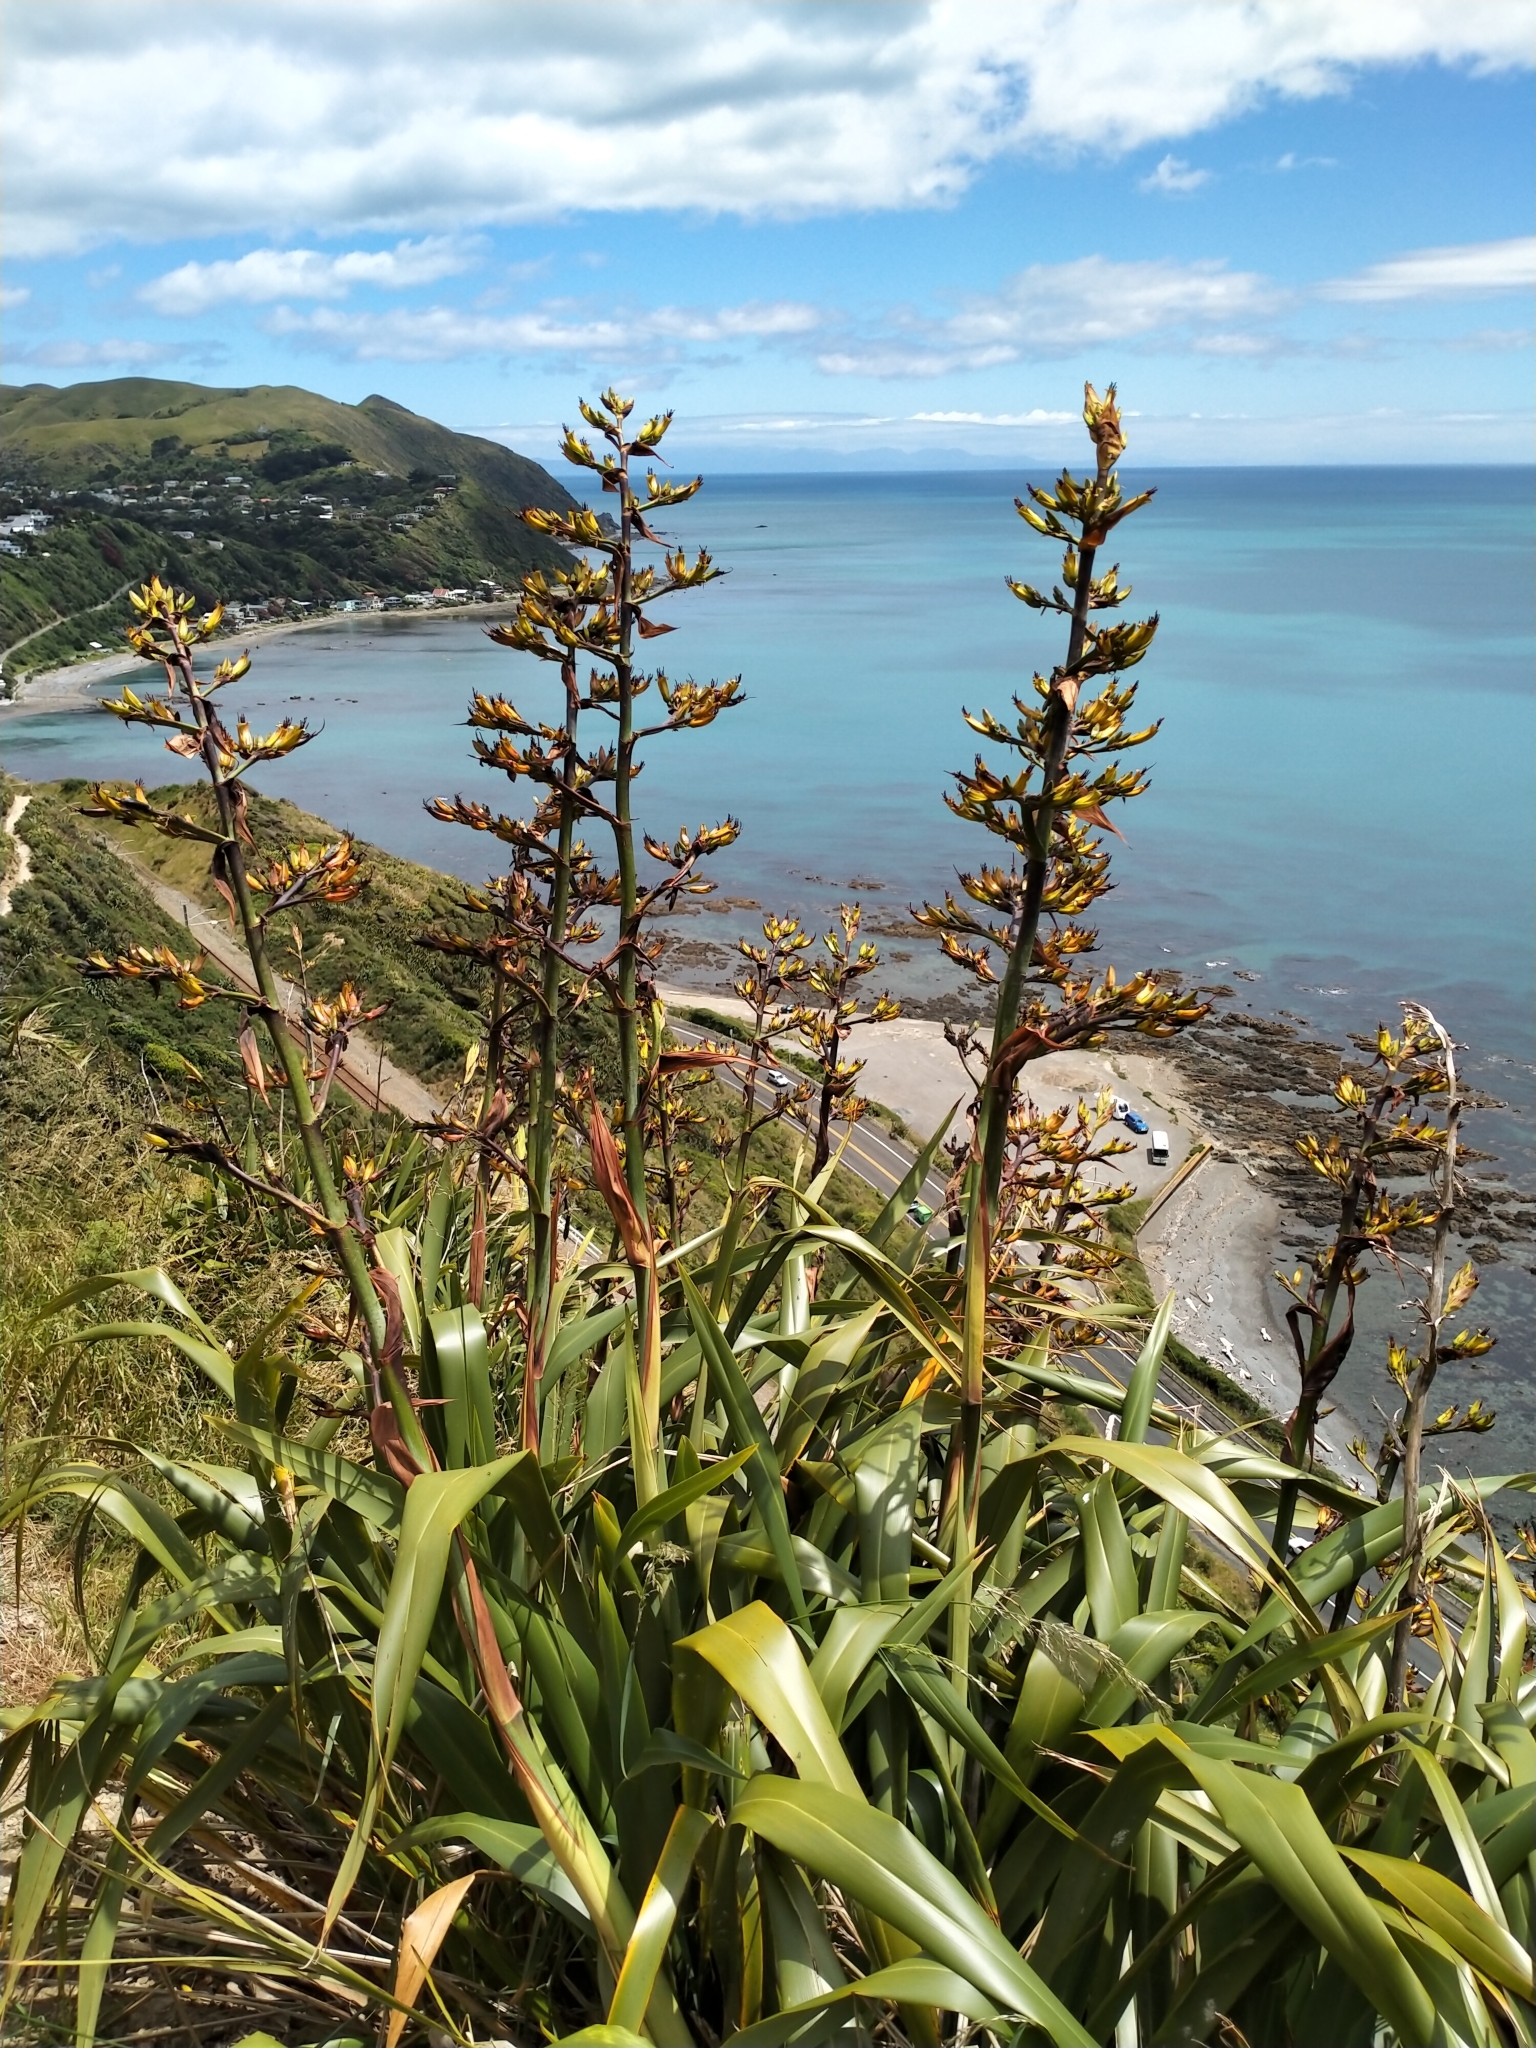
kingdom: Plantae
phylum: Tracheophyta
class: Liliopsida
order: Asparagales
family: Asphodelaceae
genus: Phormium
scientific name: Phormium colensoi
